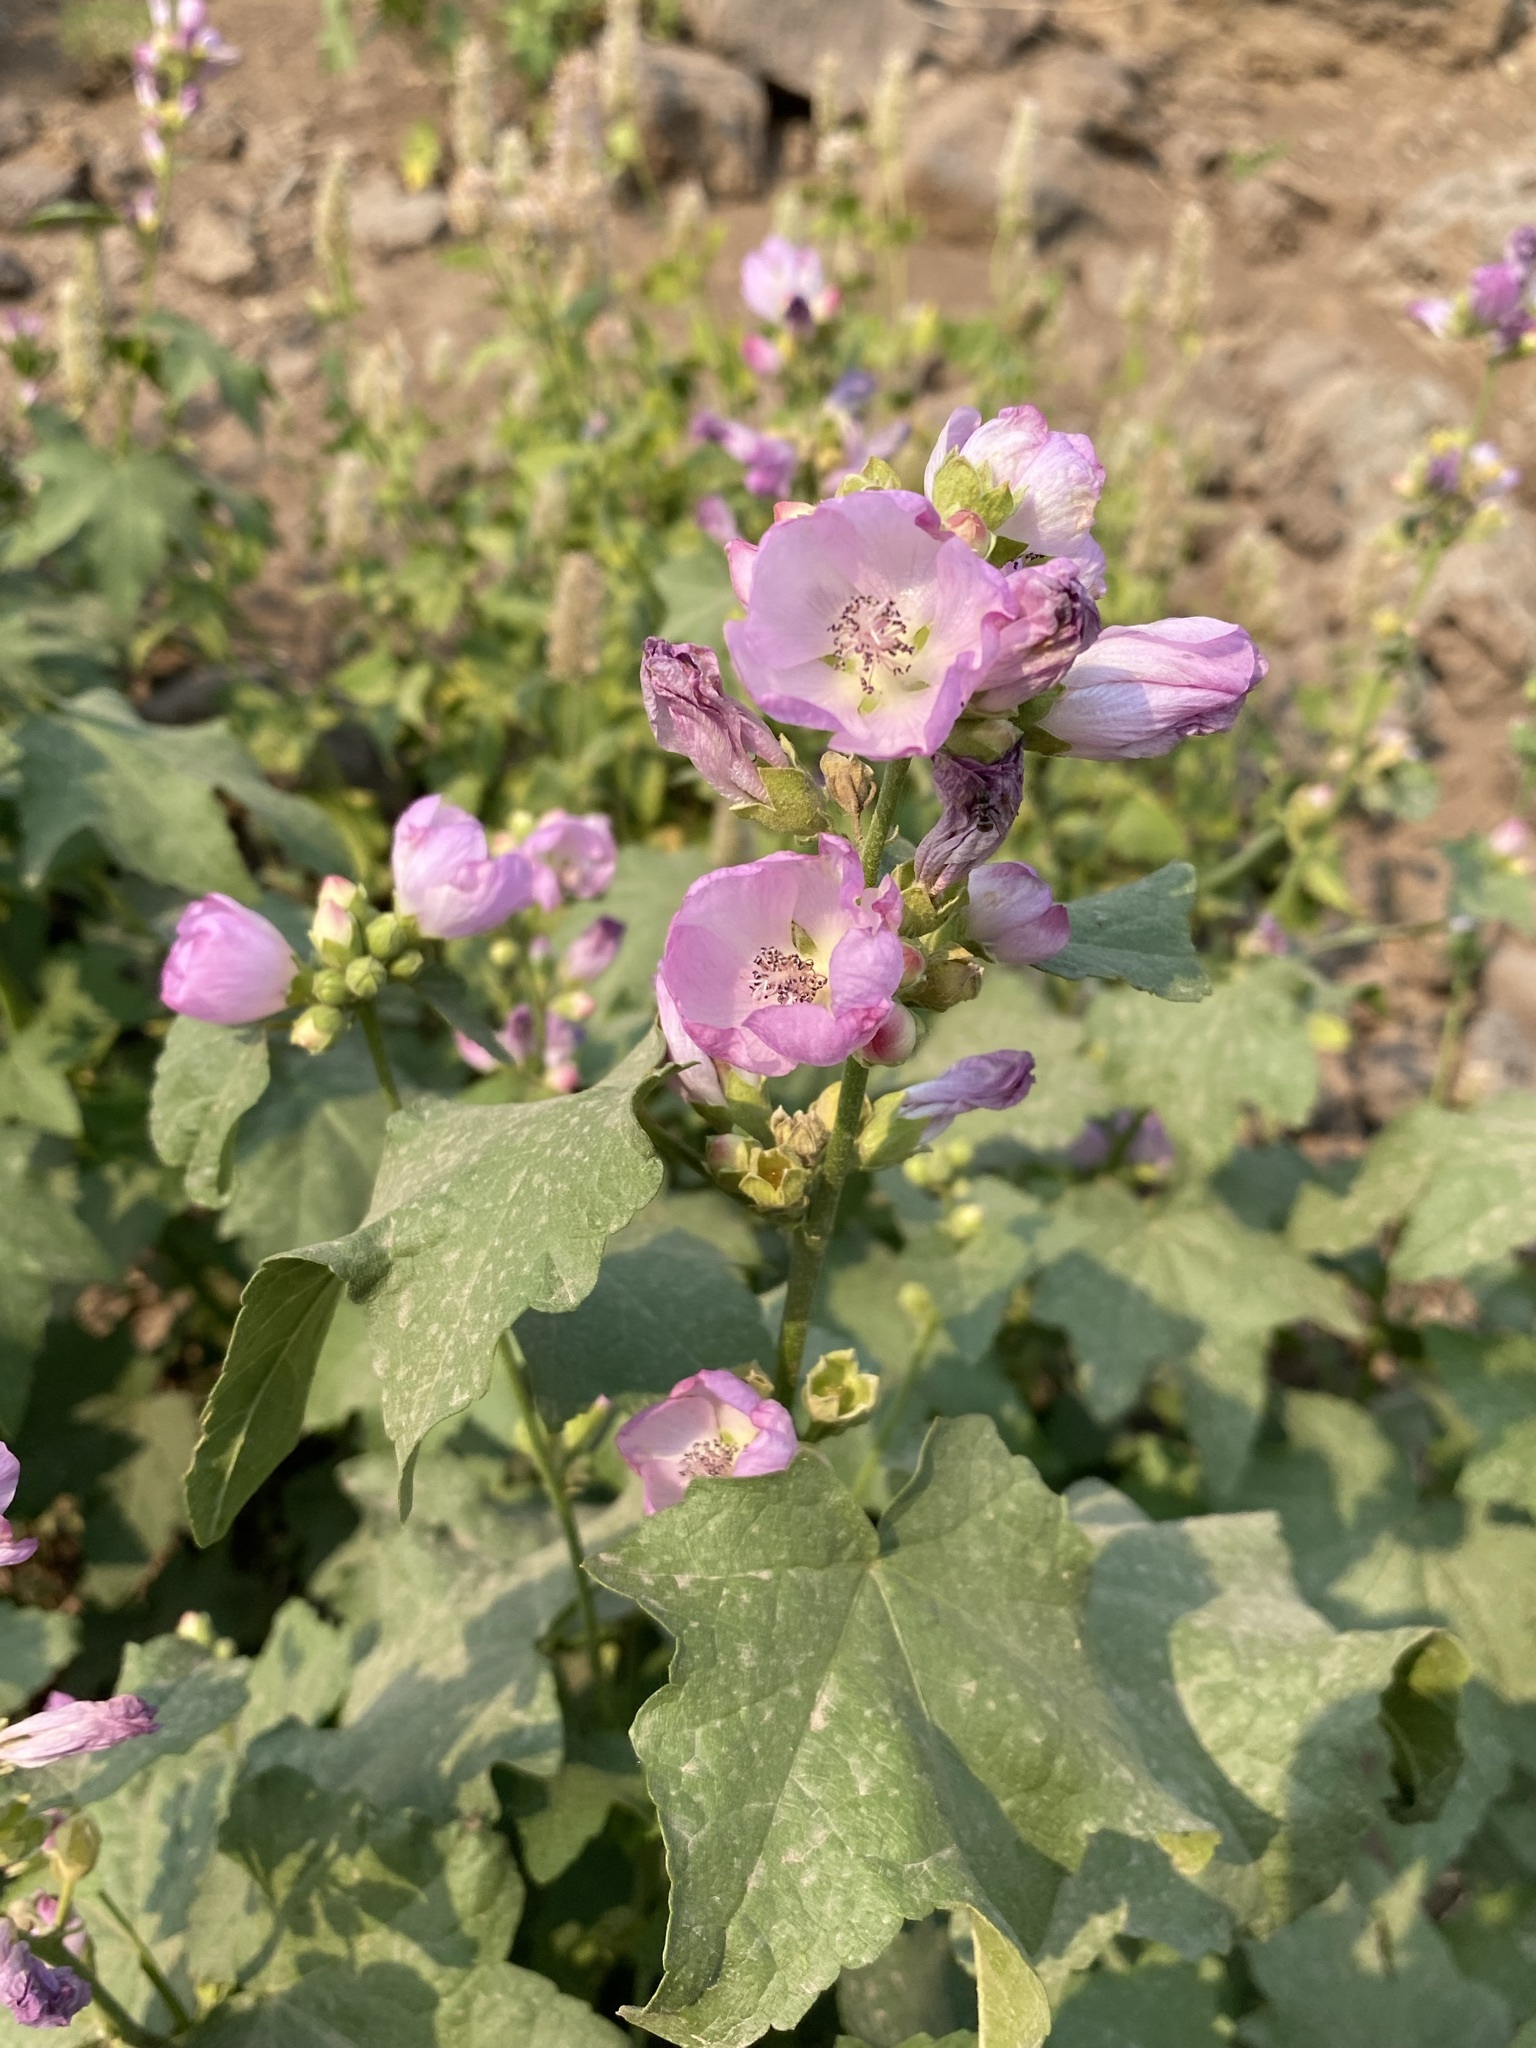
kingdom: Plantae
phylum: Tracheophyta
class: Magnoliopsida
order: Malvales
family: Malvaceae
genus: Iliamna
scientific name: Iliamna rivularis
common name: Wild hollyhock
